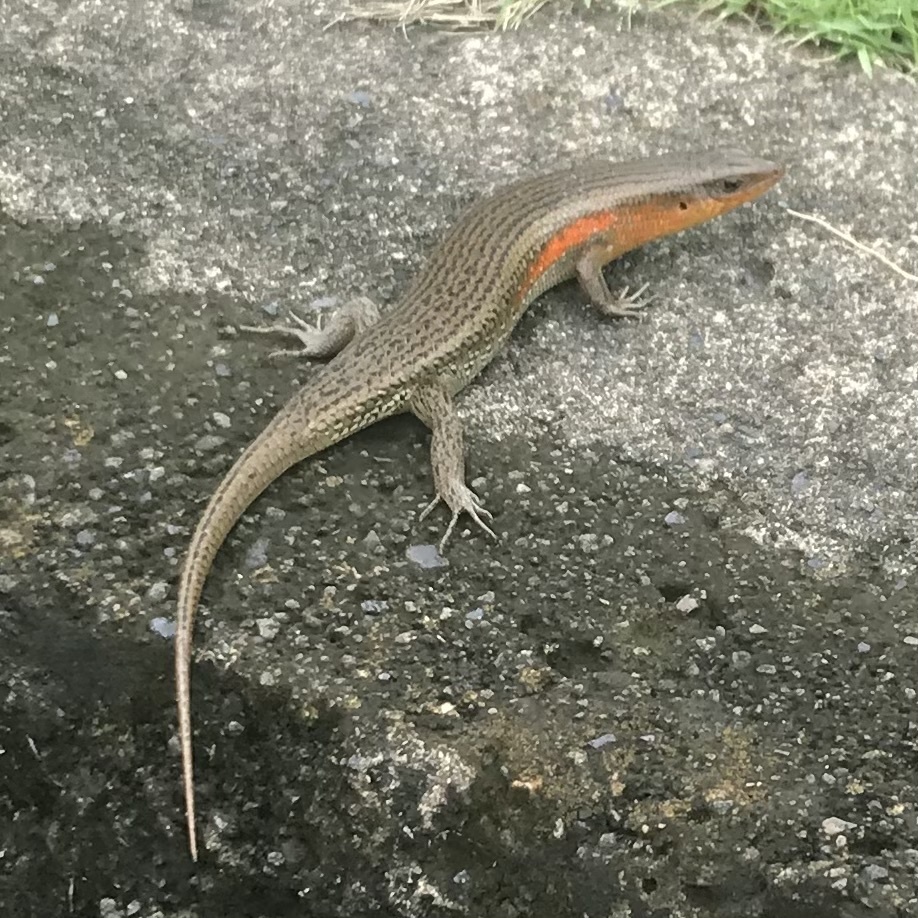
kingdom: Animalia
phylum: Chordata
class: Squamata
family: Scincidae
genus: Eutropis
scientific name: Eutropis multifasciata
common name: Common mabuya
